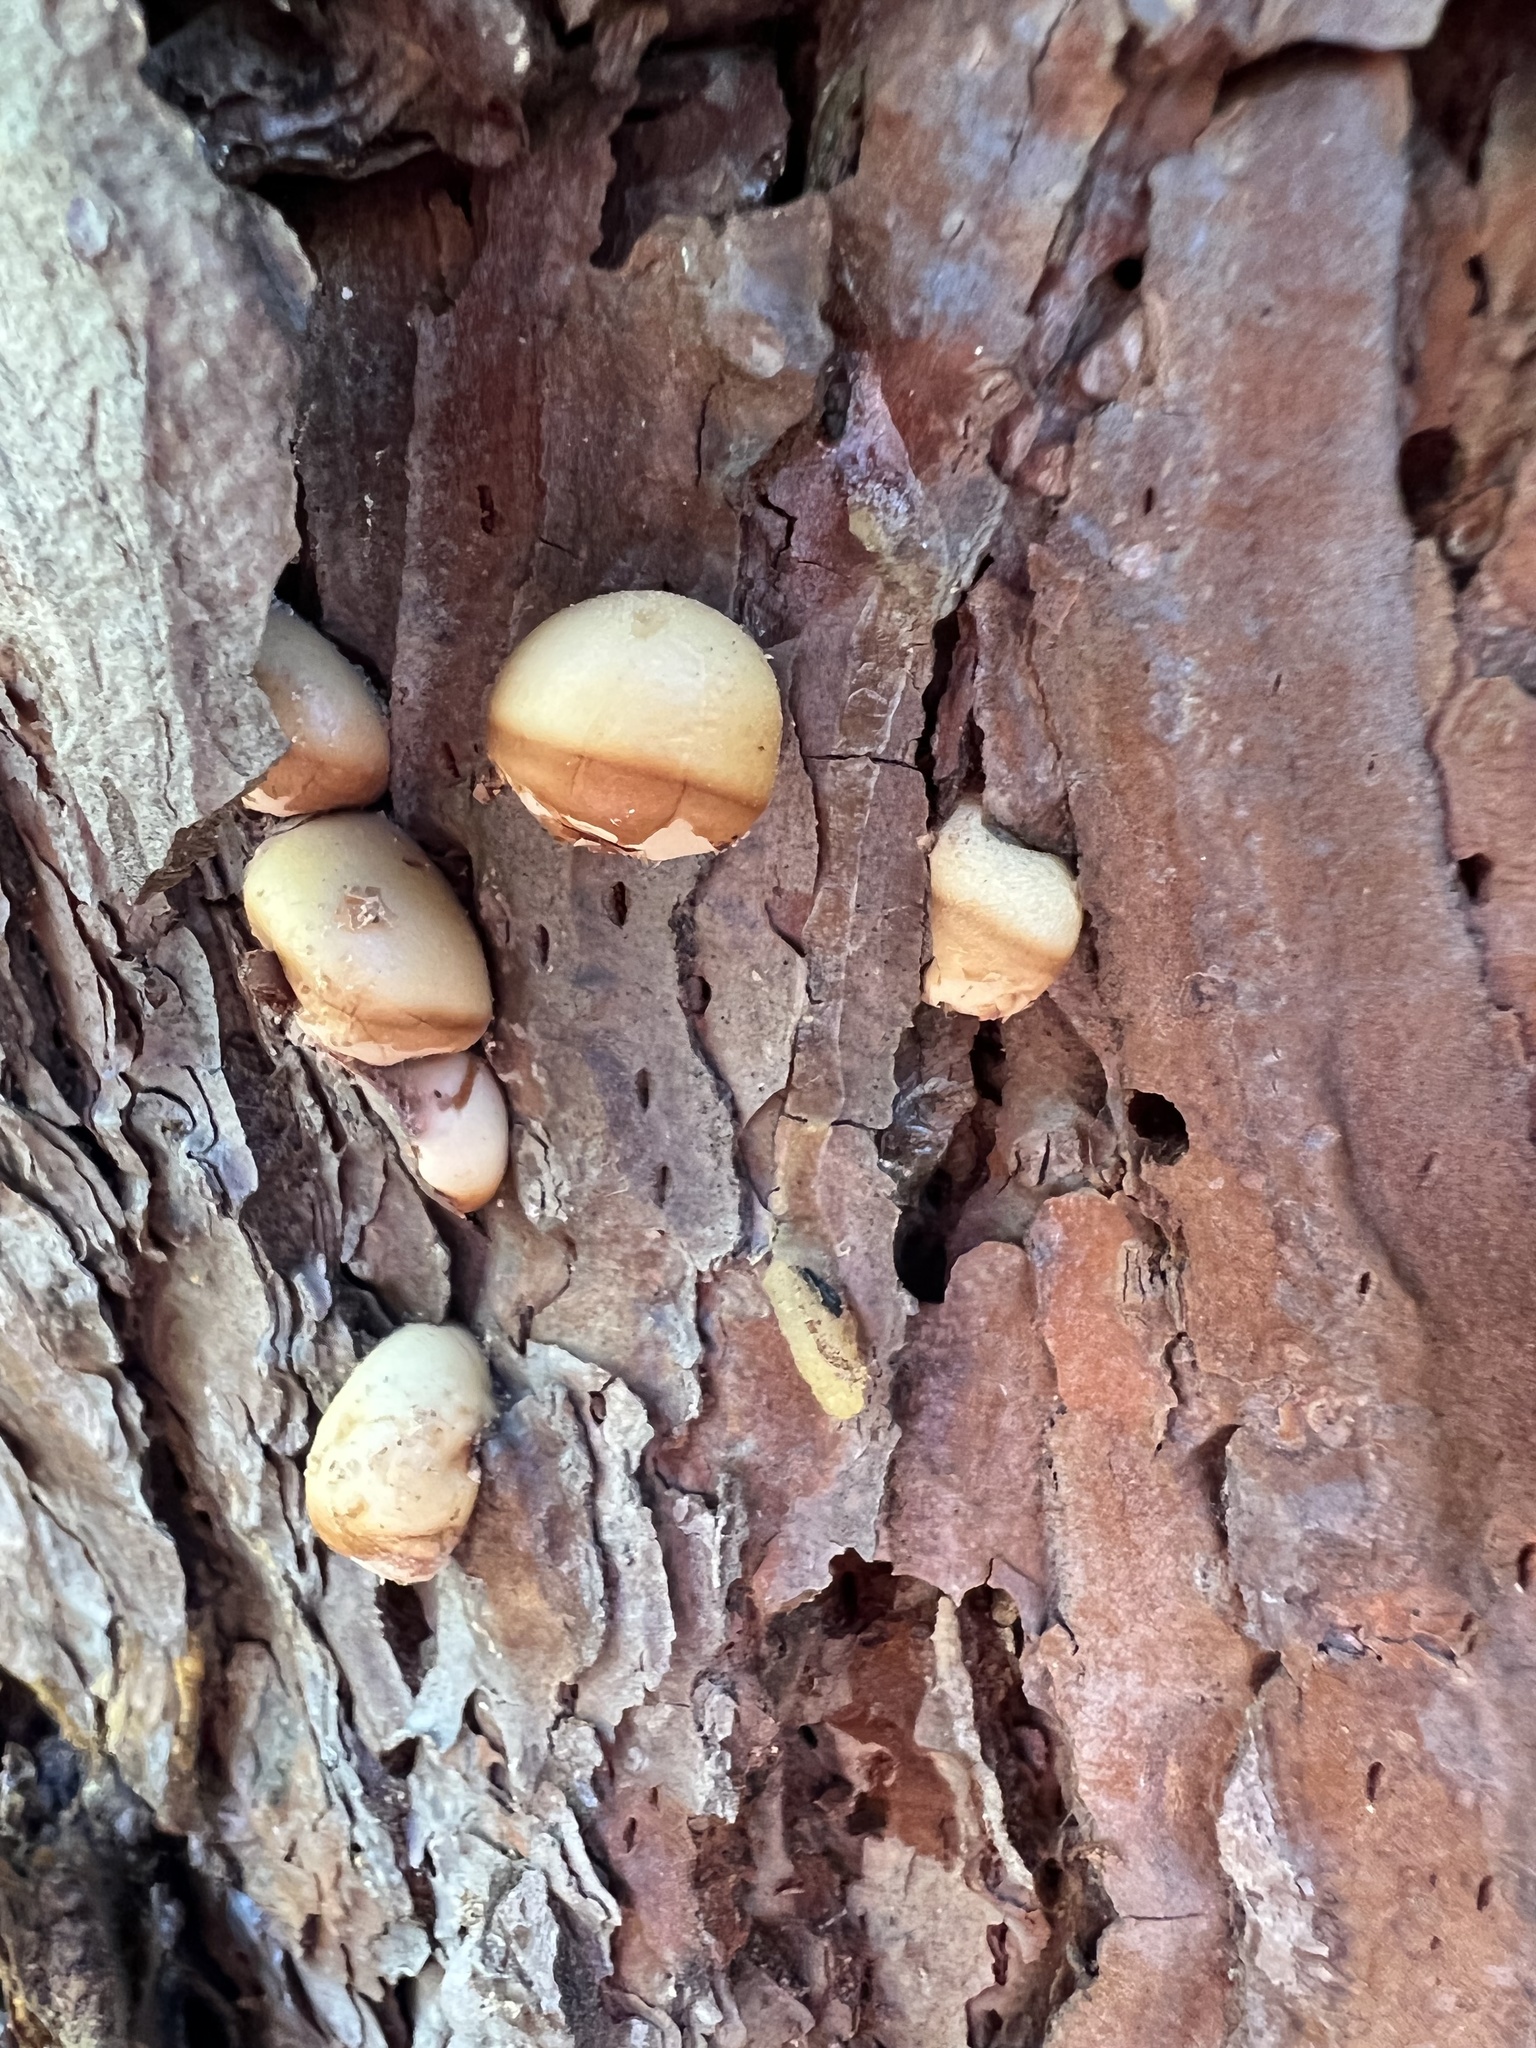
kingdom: Fungi
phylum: Basidiomycota
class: Agaricomycetes
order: Polyporales
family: Polyporaceae
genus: Cryptoporus
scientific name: Cryptoporus volvatus
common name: Veiled polypore
